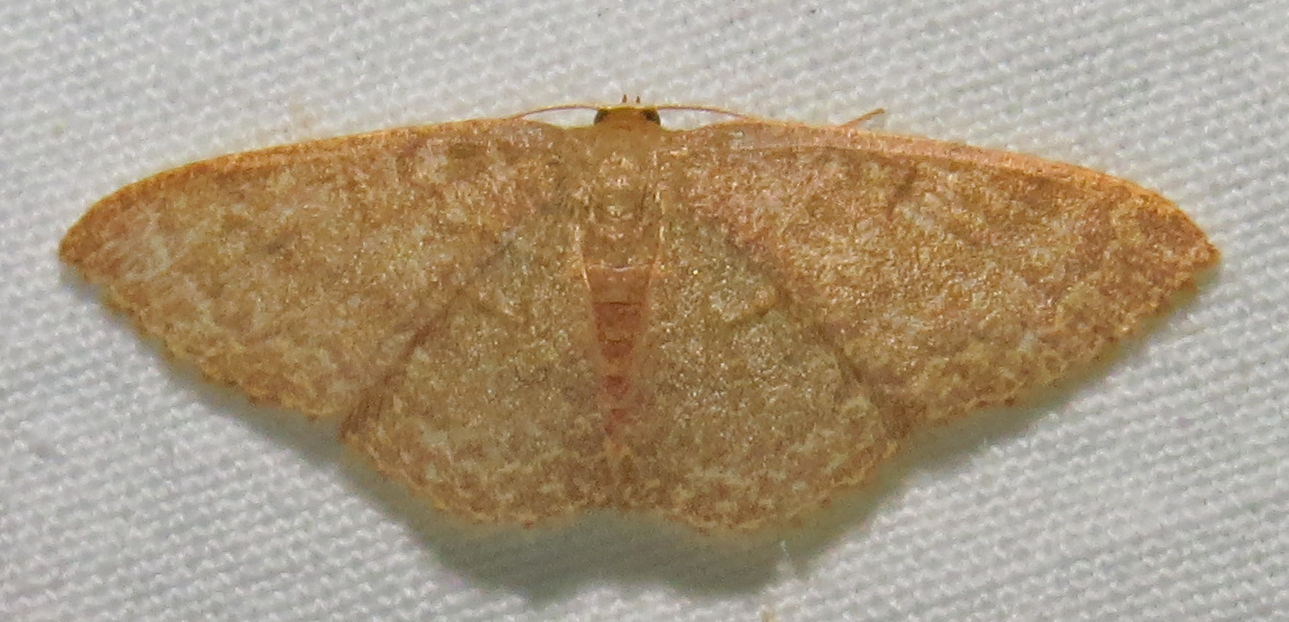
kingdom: Animalia
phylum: Arthropoda
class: Insecta
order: Lepidoptera
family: Geometridae
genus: Pleuroprucha
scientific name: Pleuroprucha insulsaria
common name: Common tan wave
